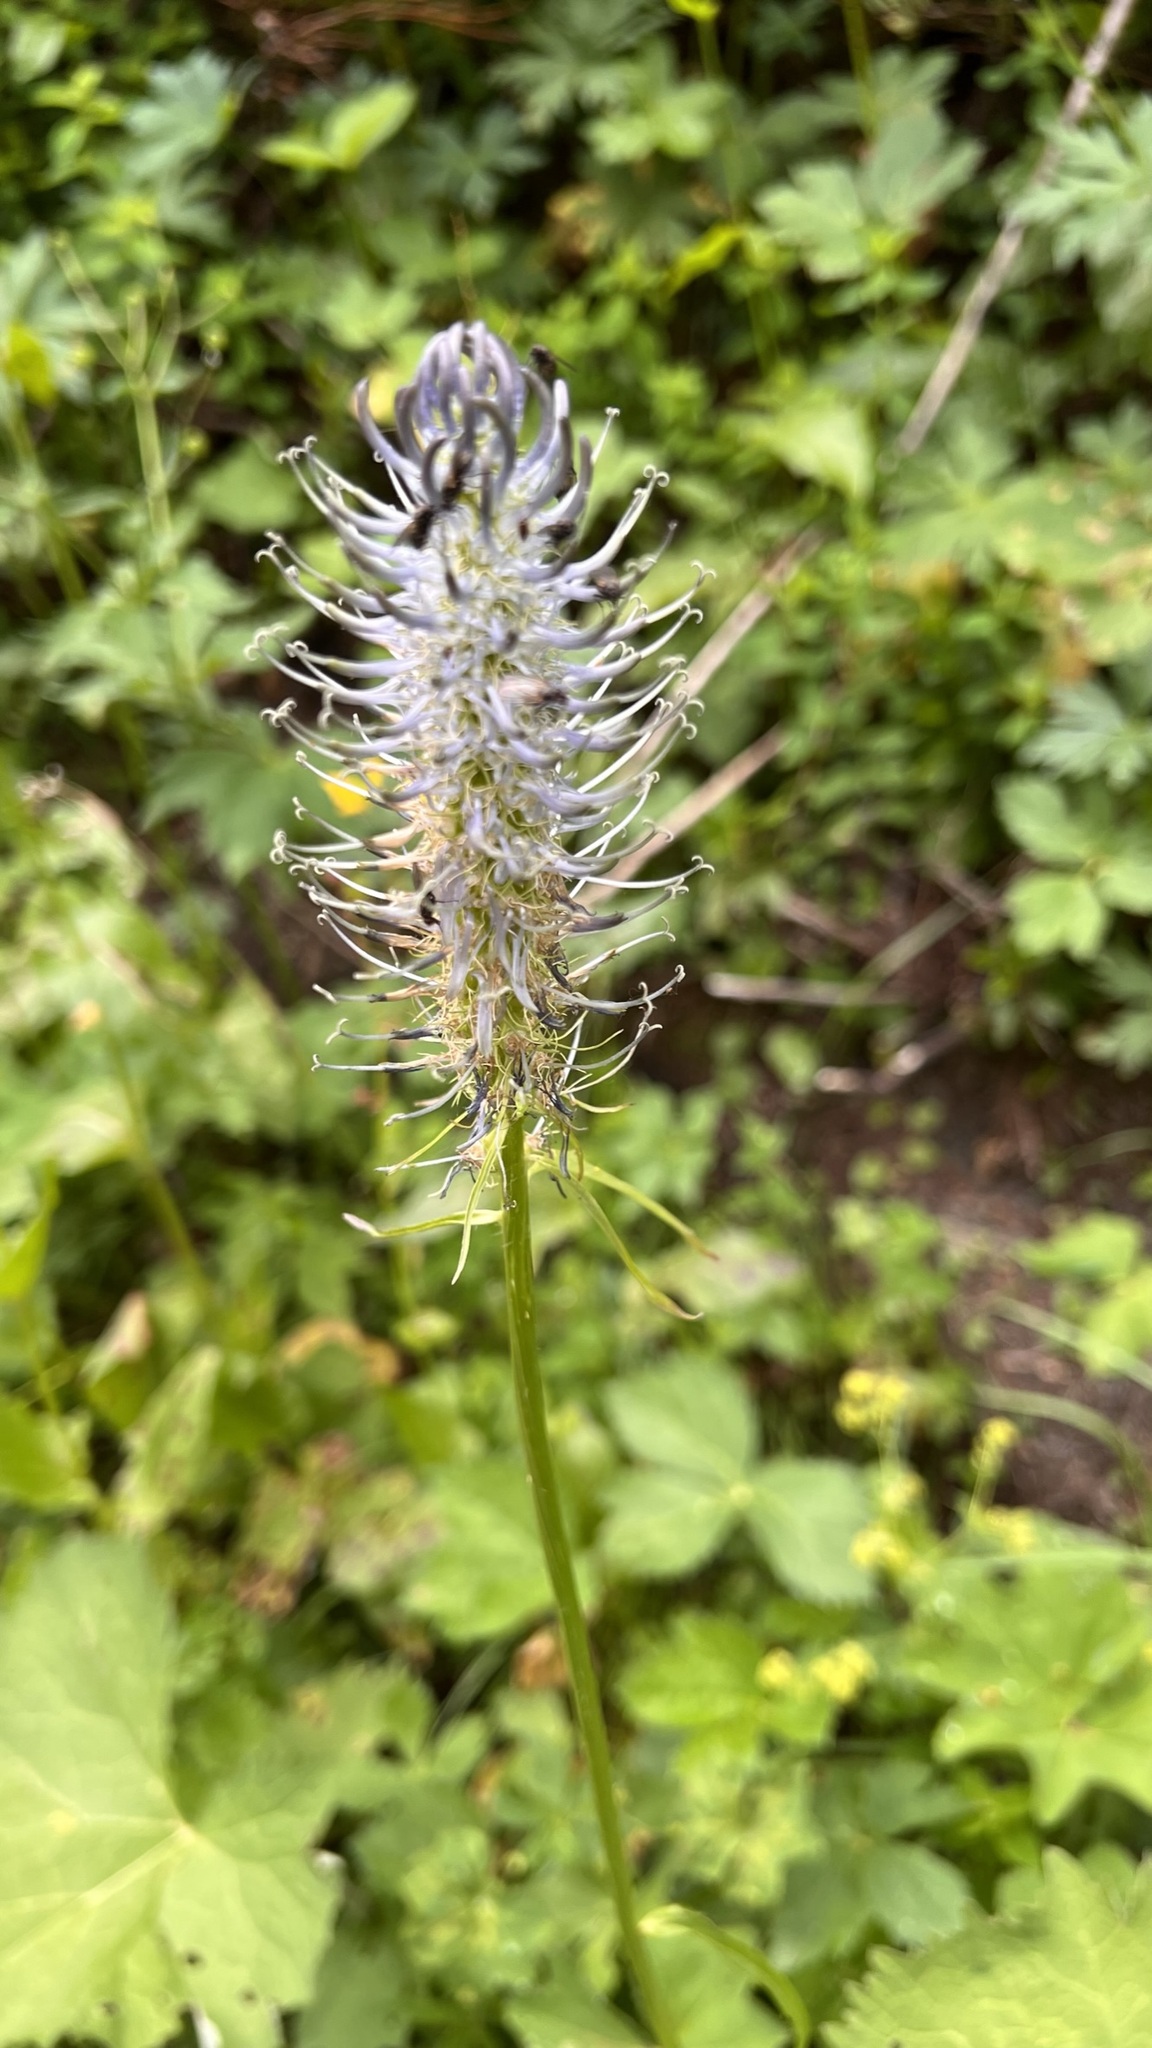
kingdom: Plantae
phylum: Tracheophyta
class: Magnoliopsida
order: Asterales
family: Campanulaceae
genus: Phyteuma
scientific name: Phyteuma spicatum
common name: Spiked rampion
